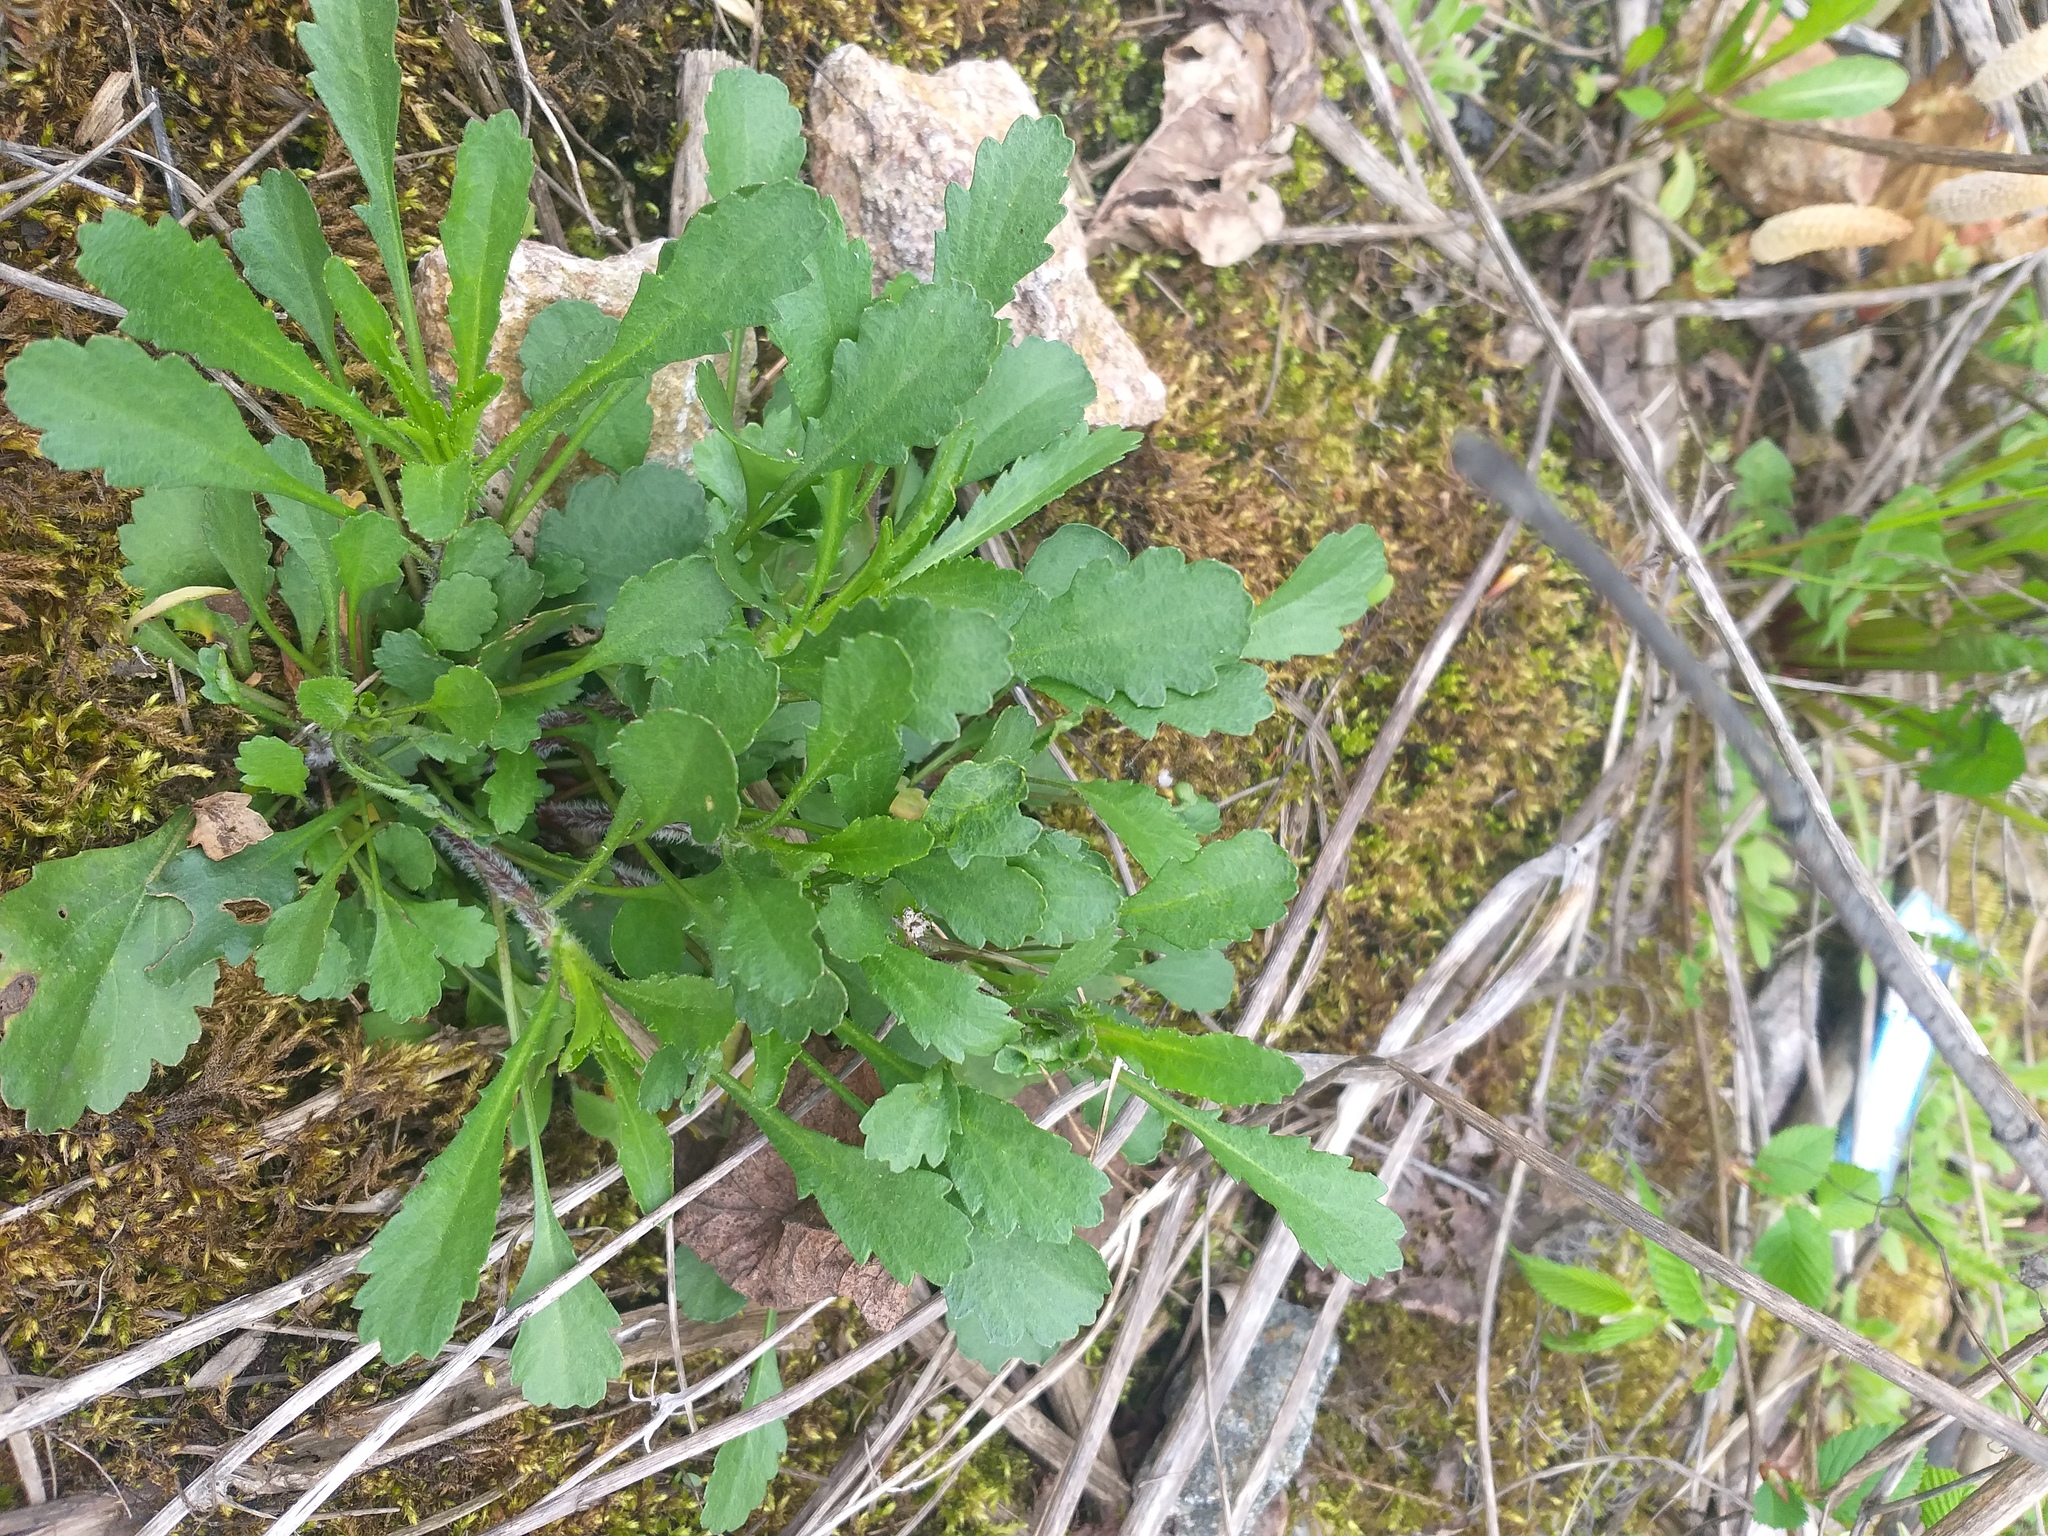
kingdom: Plantae
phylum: Tracheophyta
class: Magnoliopsida
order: Asterales
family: Asteraceae
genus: Leucanthemum
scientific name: Leucanthemum vulgare
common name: Oxeye daisy
